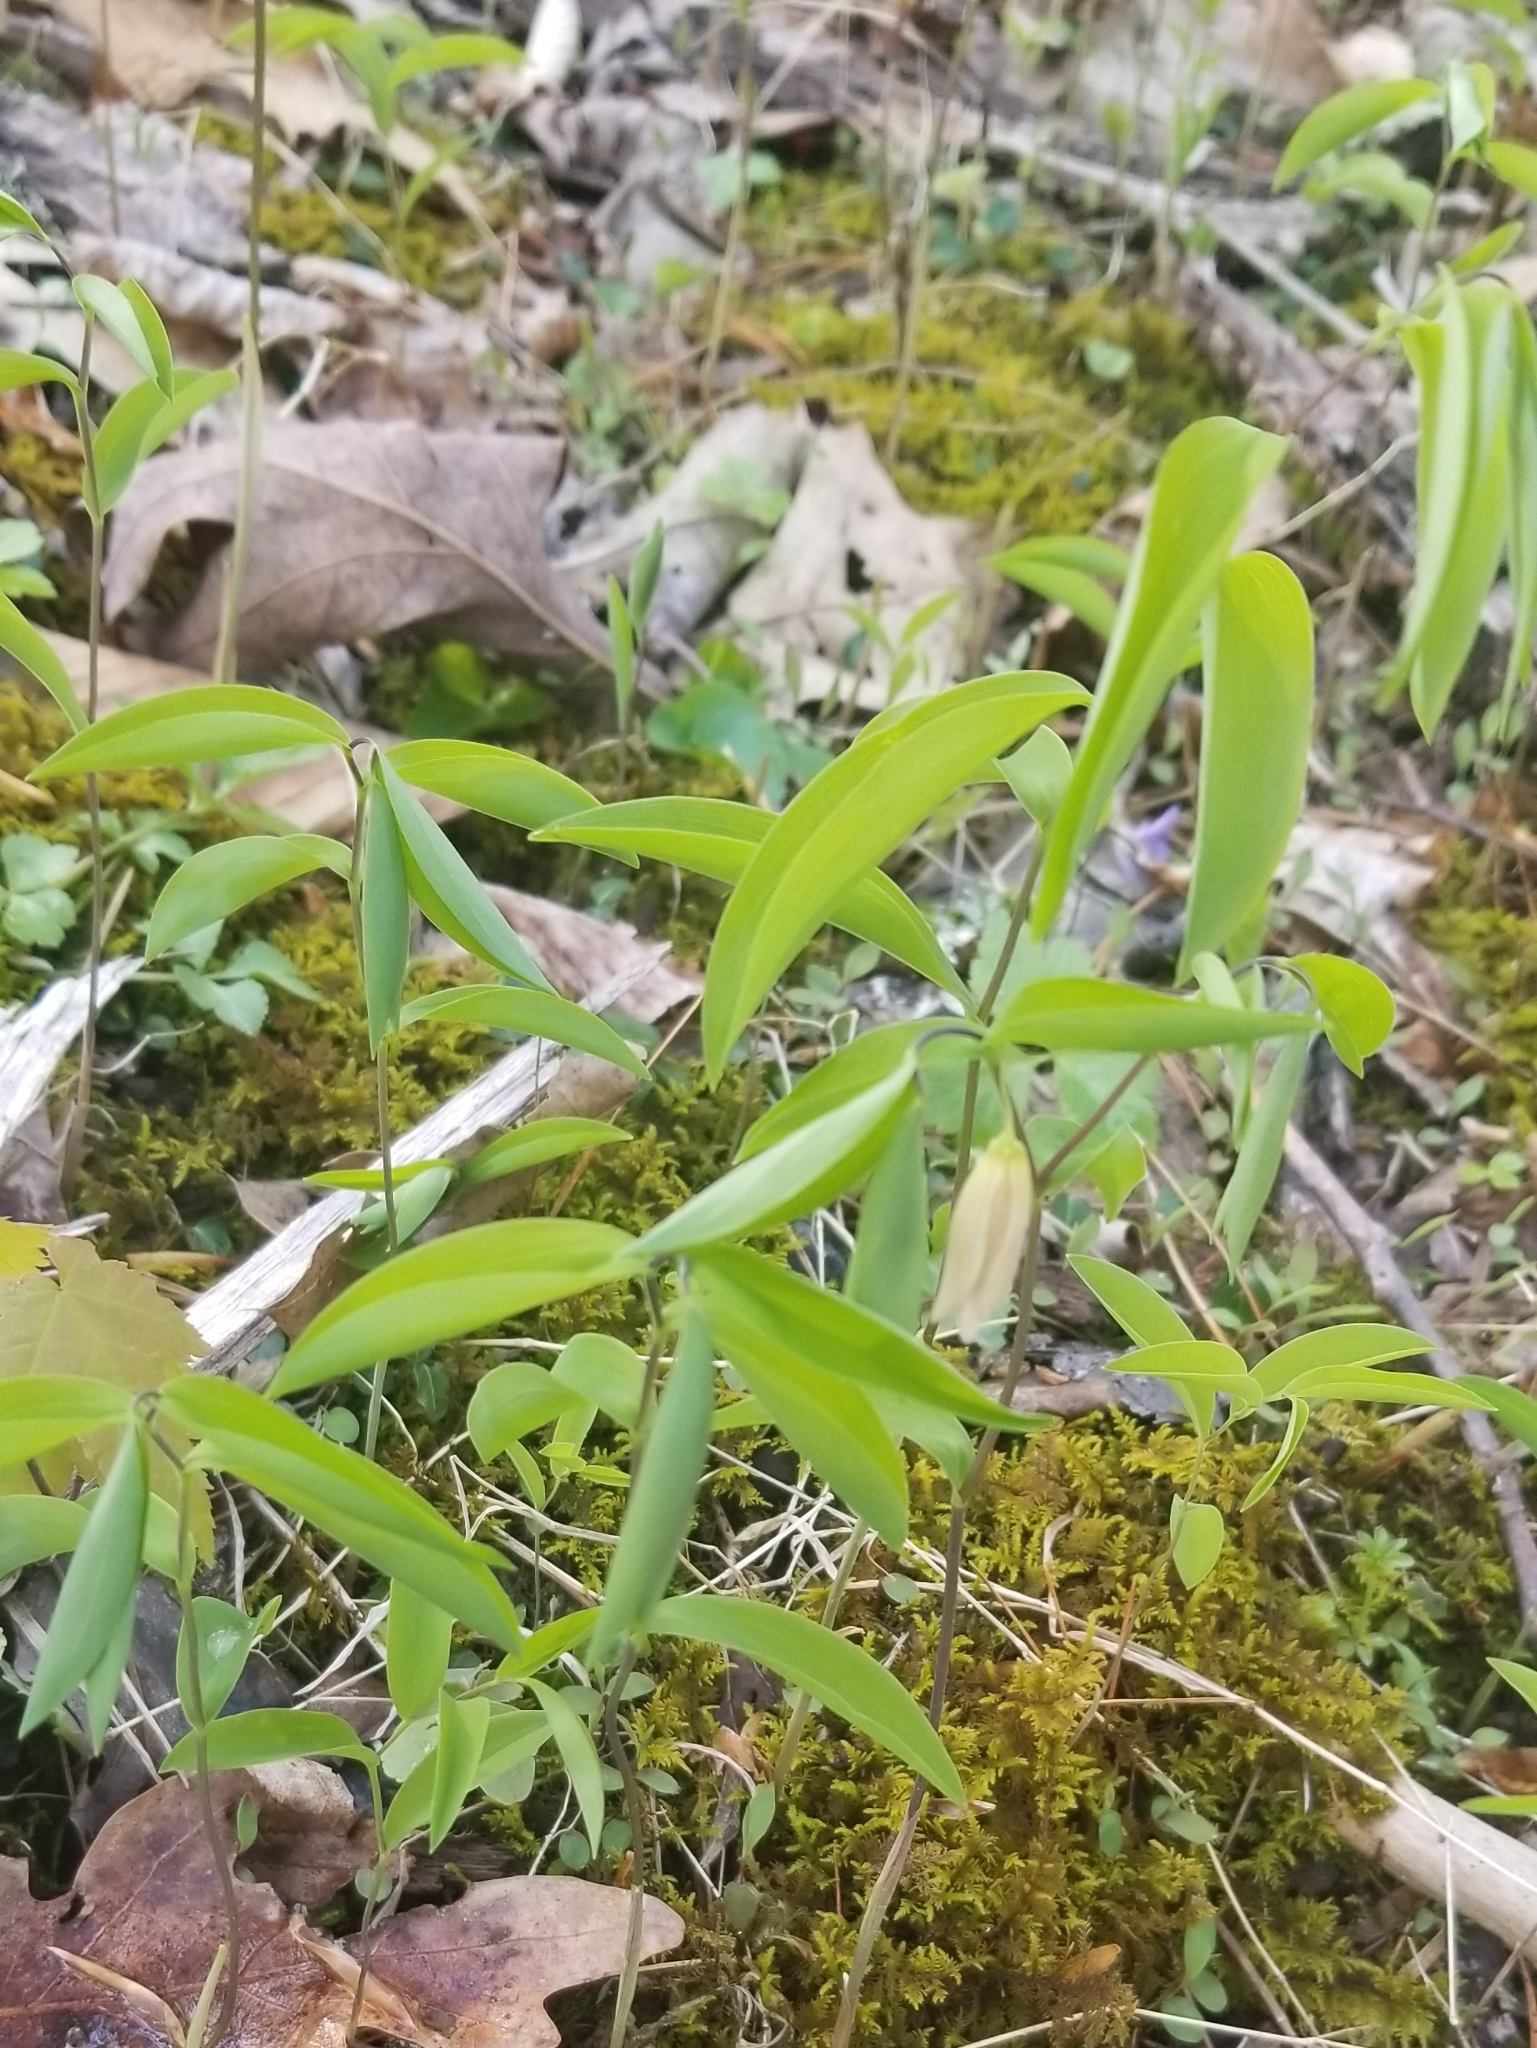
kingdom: Plantae
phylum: Tracheophyta
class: Liliopsida
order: Liliales
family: Colchicaceae
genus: Uvularia
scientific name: Uvularia sessilifolia
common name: Straw-lily
